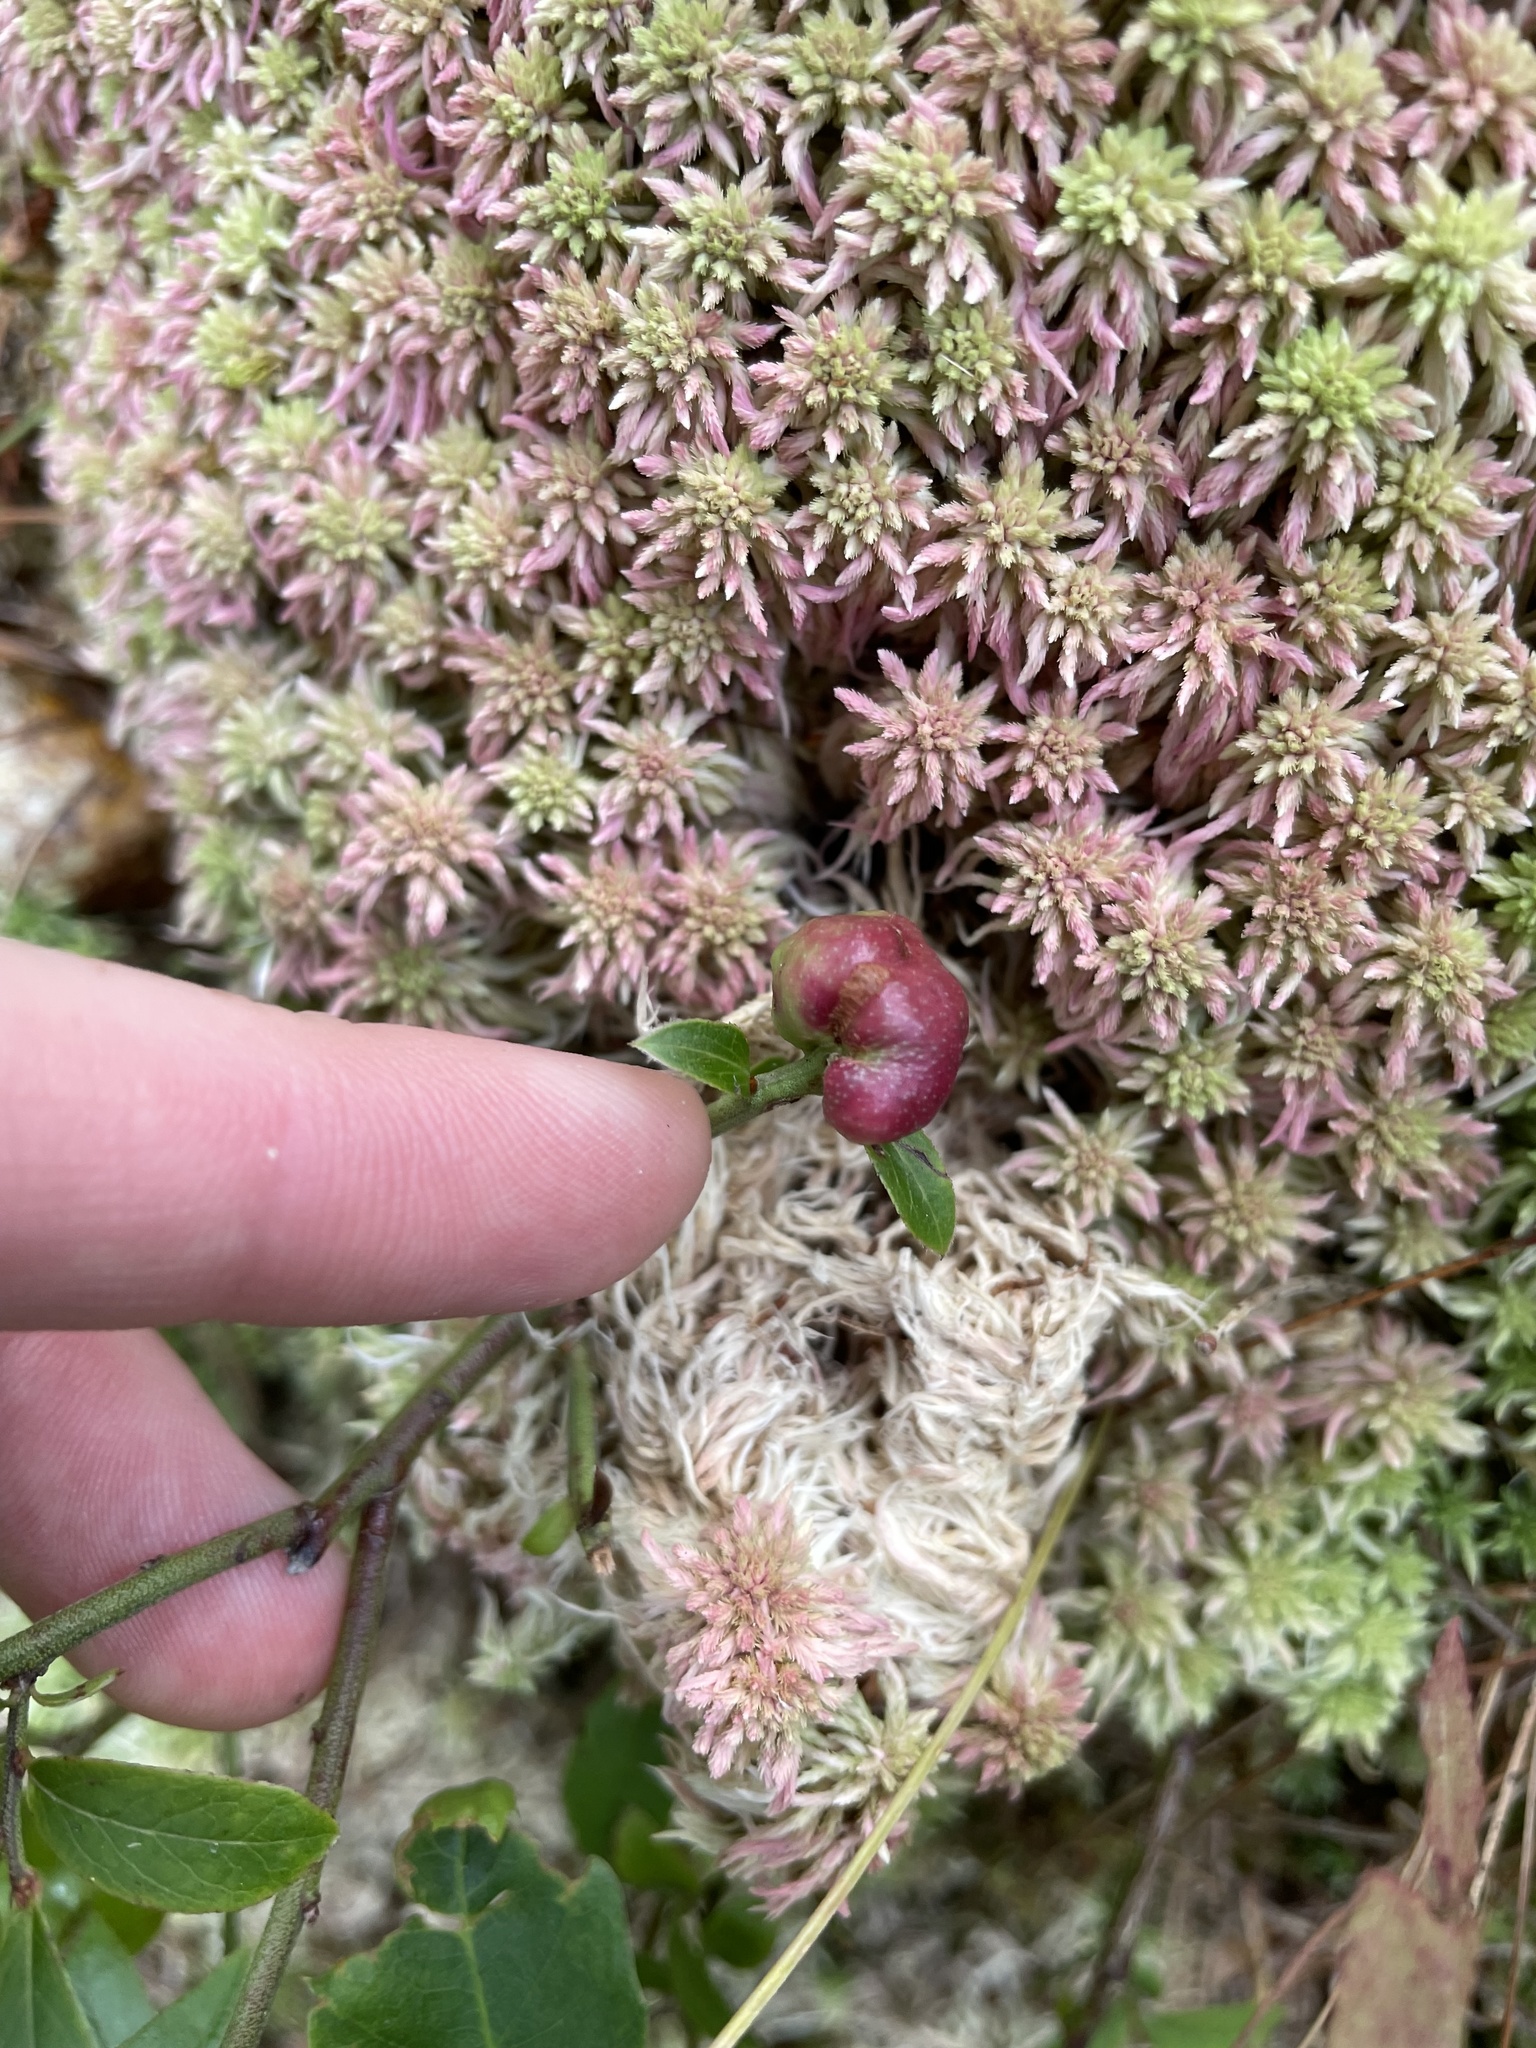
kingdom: Animalia
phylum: Arthropoda
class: Insecta
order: Hymenoptera
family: Pteromalidae
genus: Hemadas
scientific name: Hemadas nubilipennis
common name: Blueberry stem gall wasp
